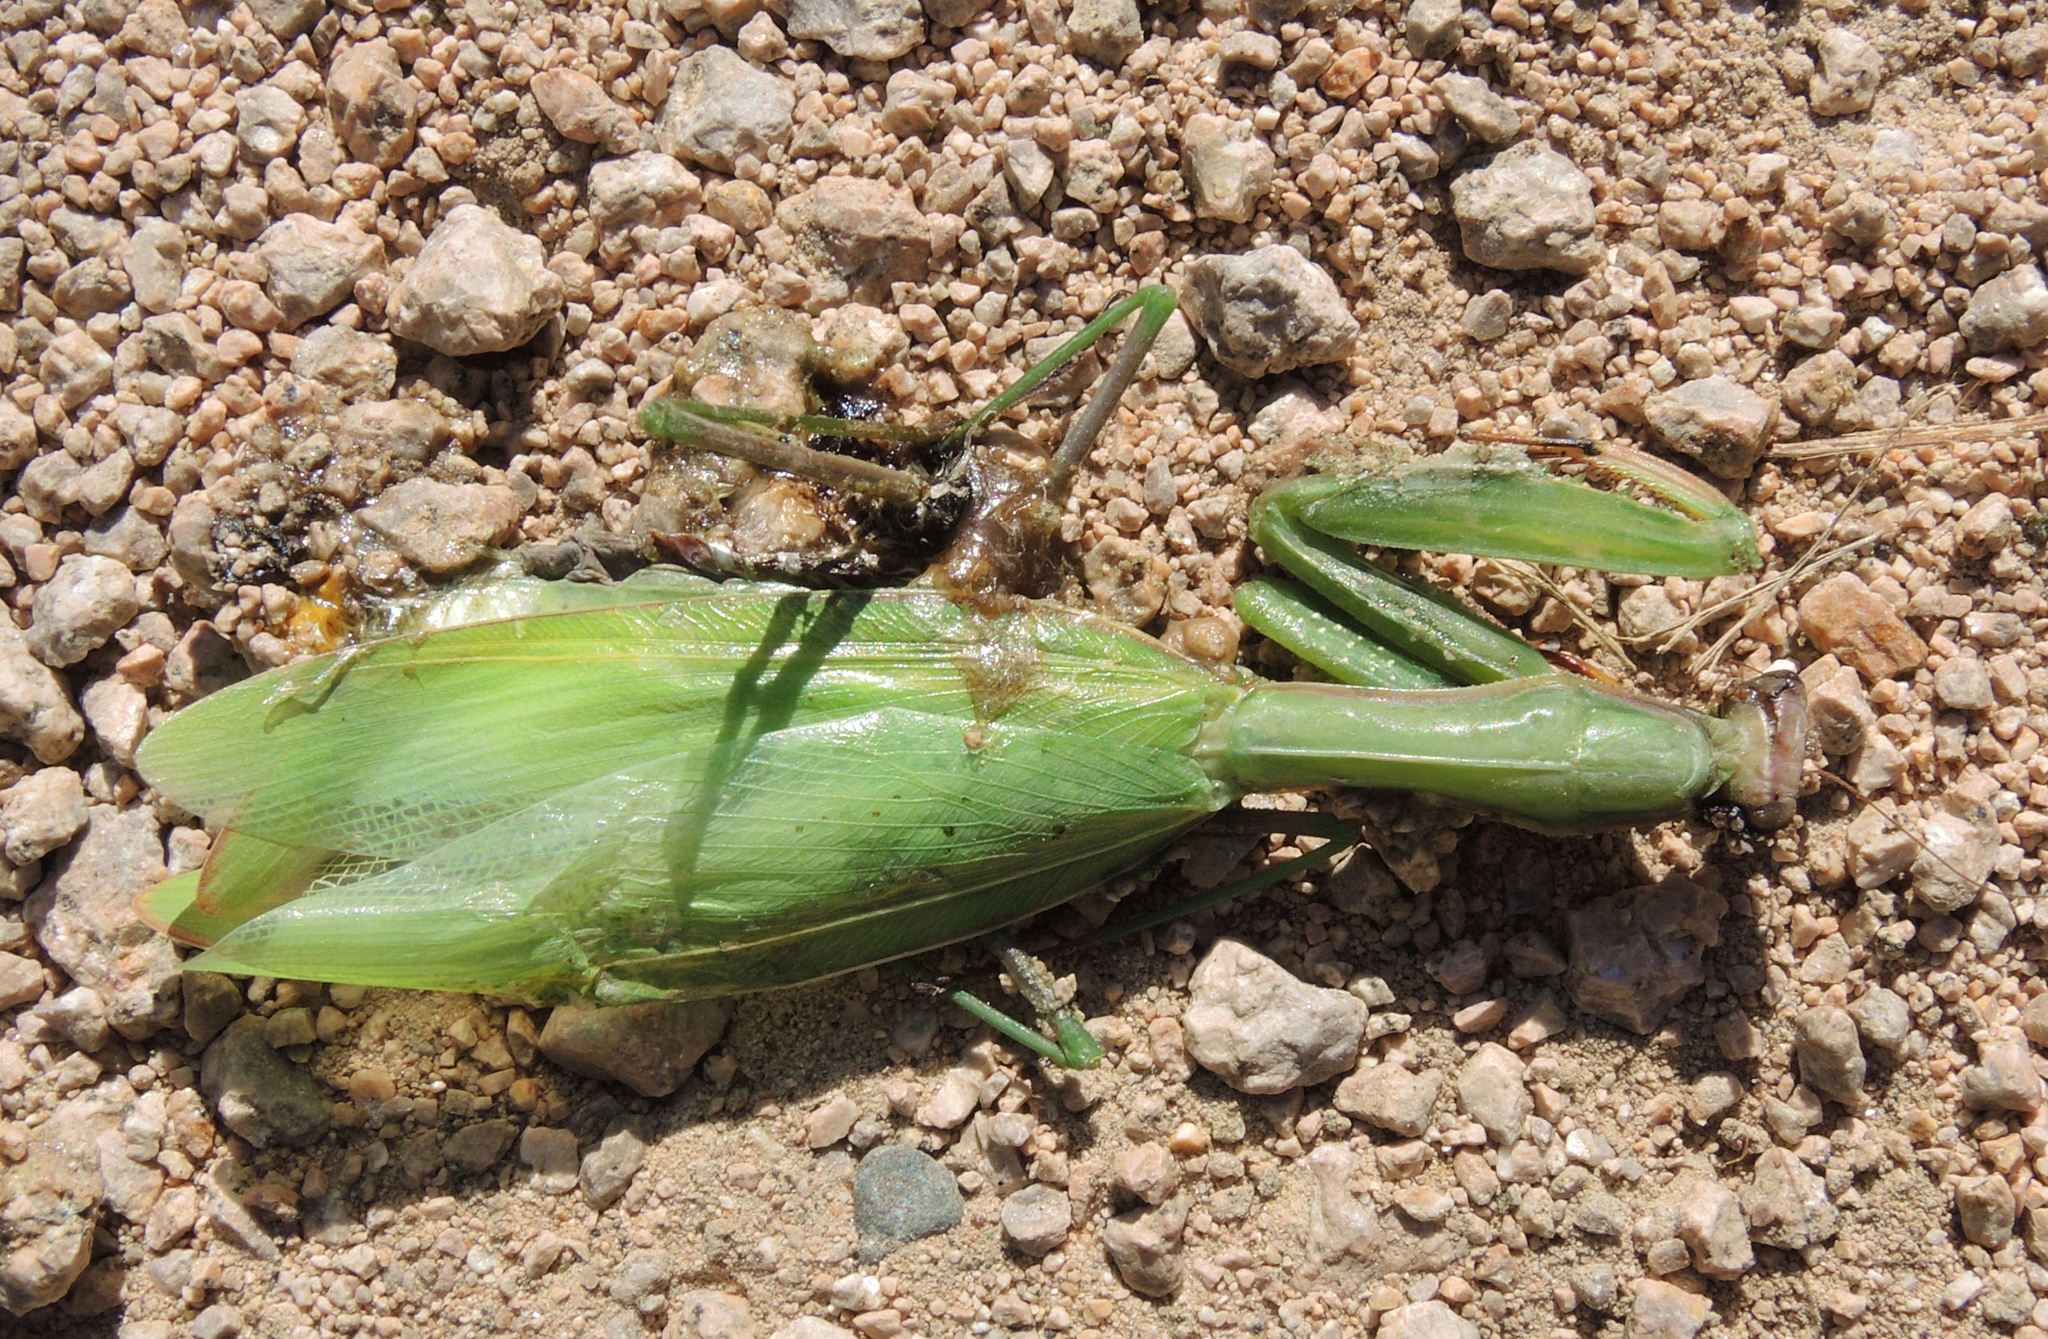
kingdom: Animalia
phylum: Arthropoda
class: Insecta
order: Mantodea
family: Mantidae
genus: Mantis
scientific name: Mantis religiosa
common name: Praying mantis
